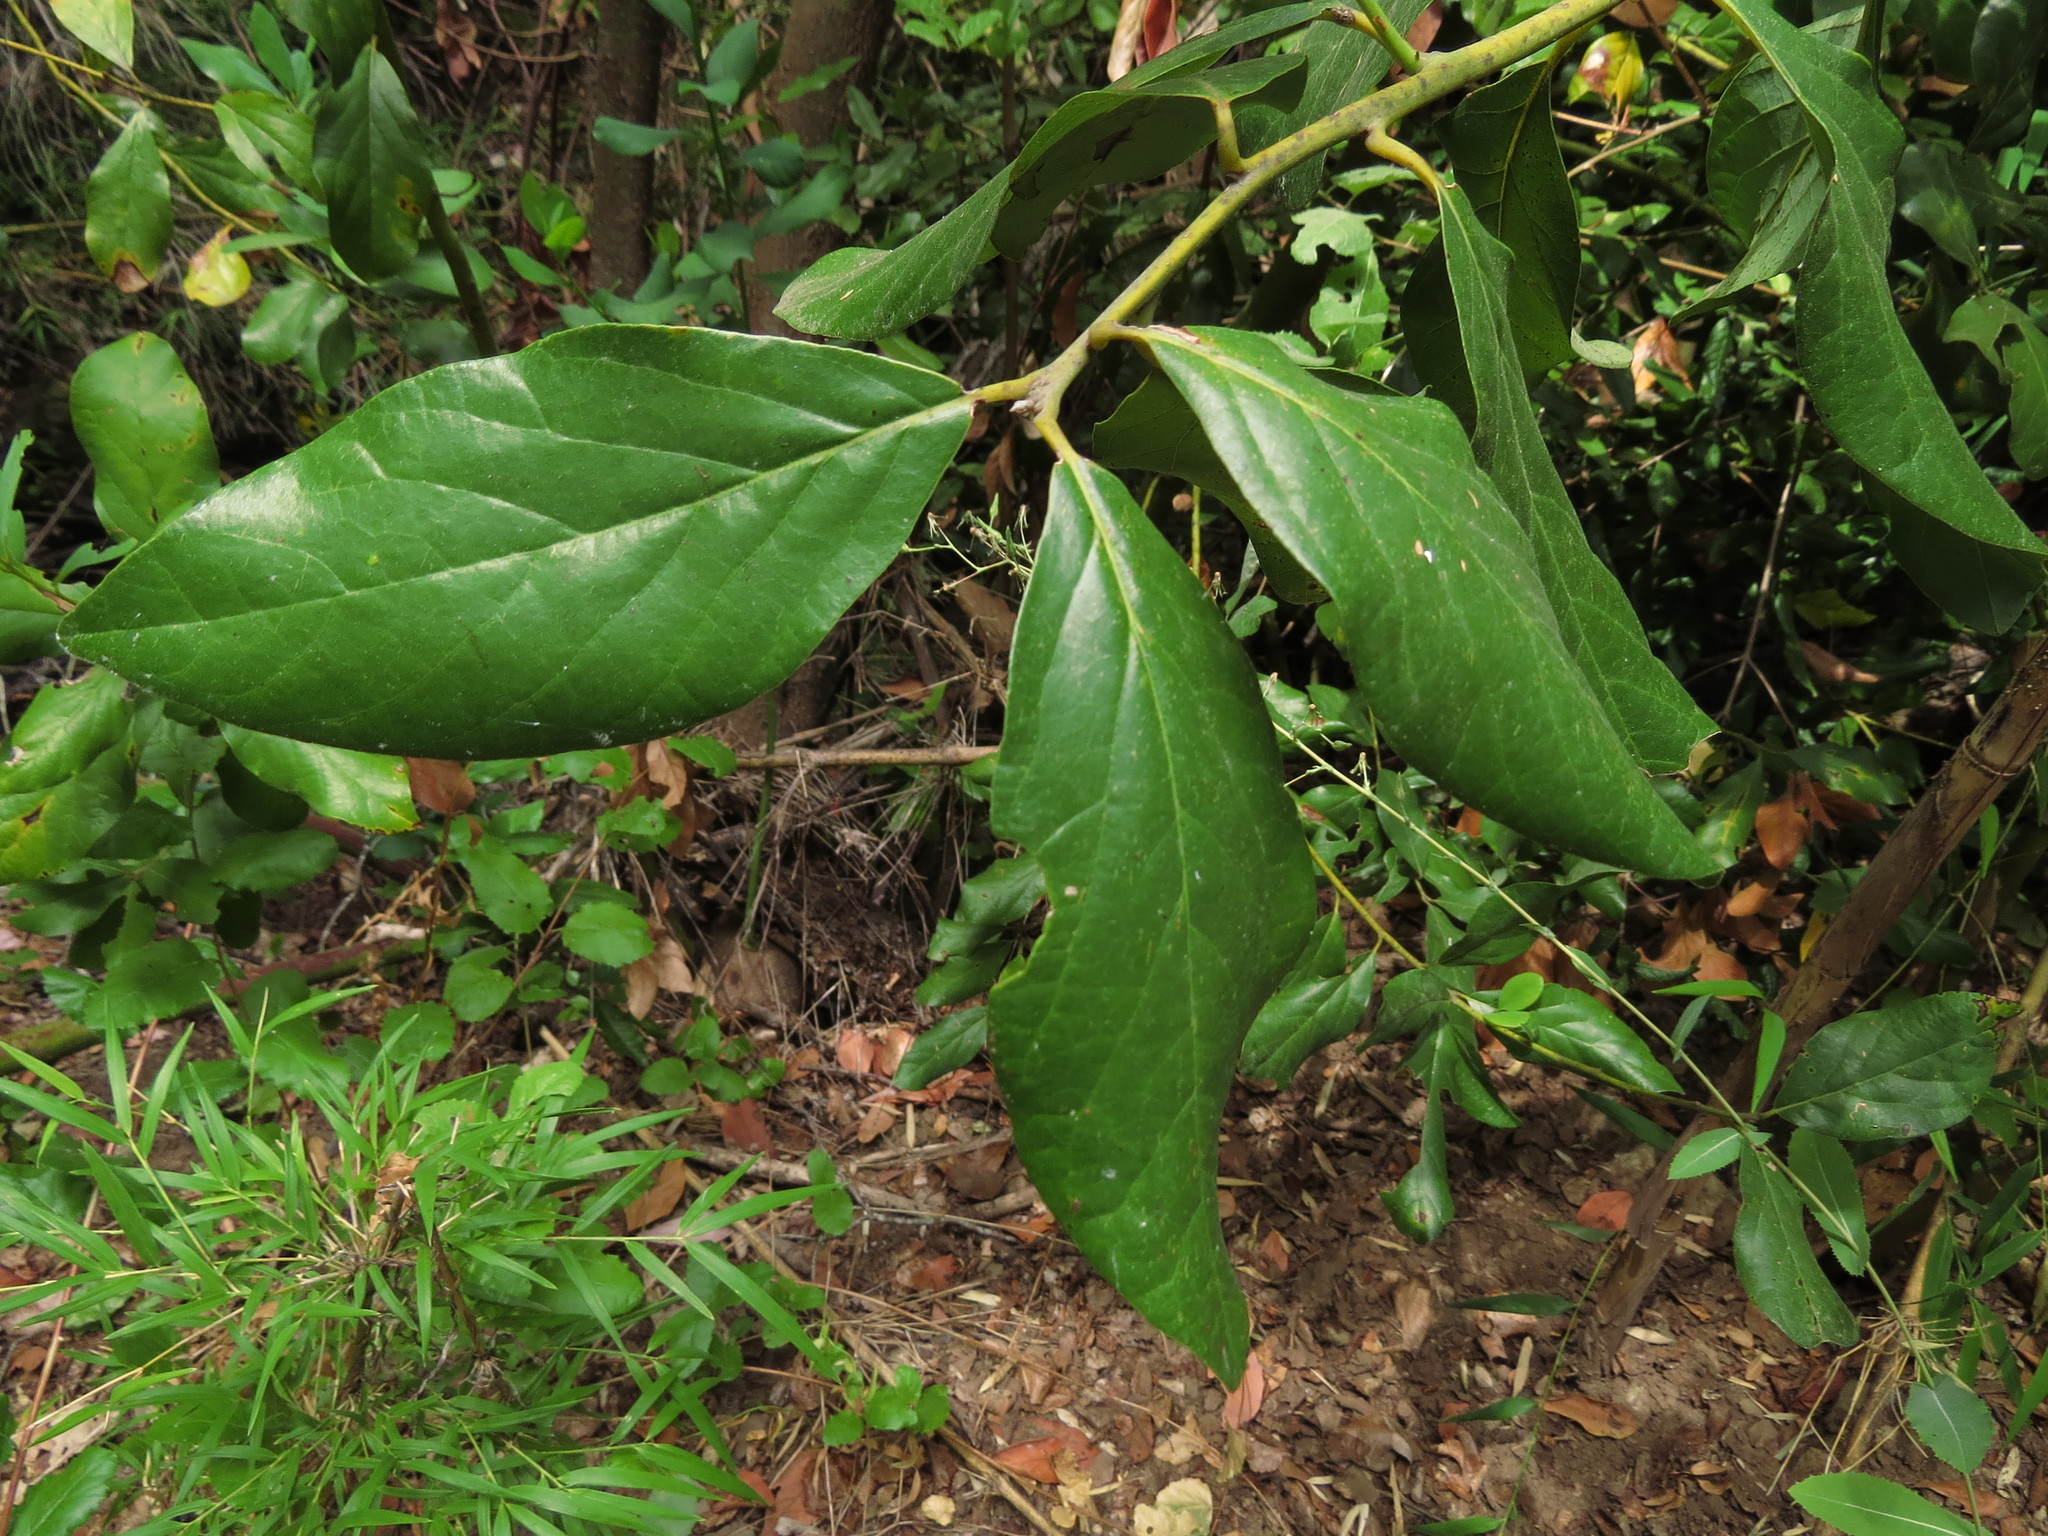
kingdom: Plantae
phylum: Tracheophyta
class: Magnoliopsida
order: Laurales
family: Lauraceae
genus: Persea
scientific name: Persea lingue
